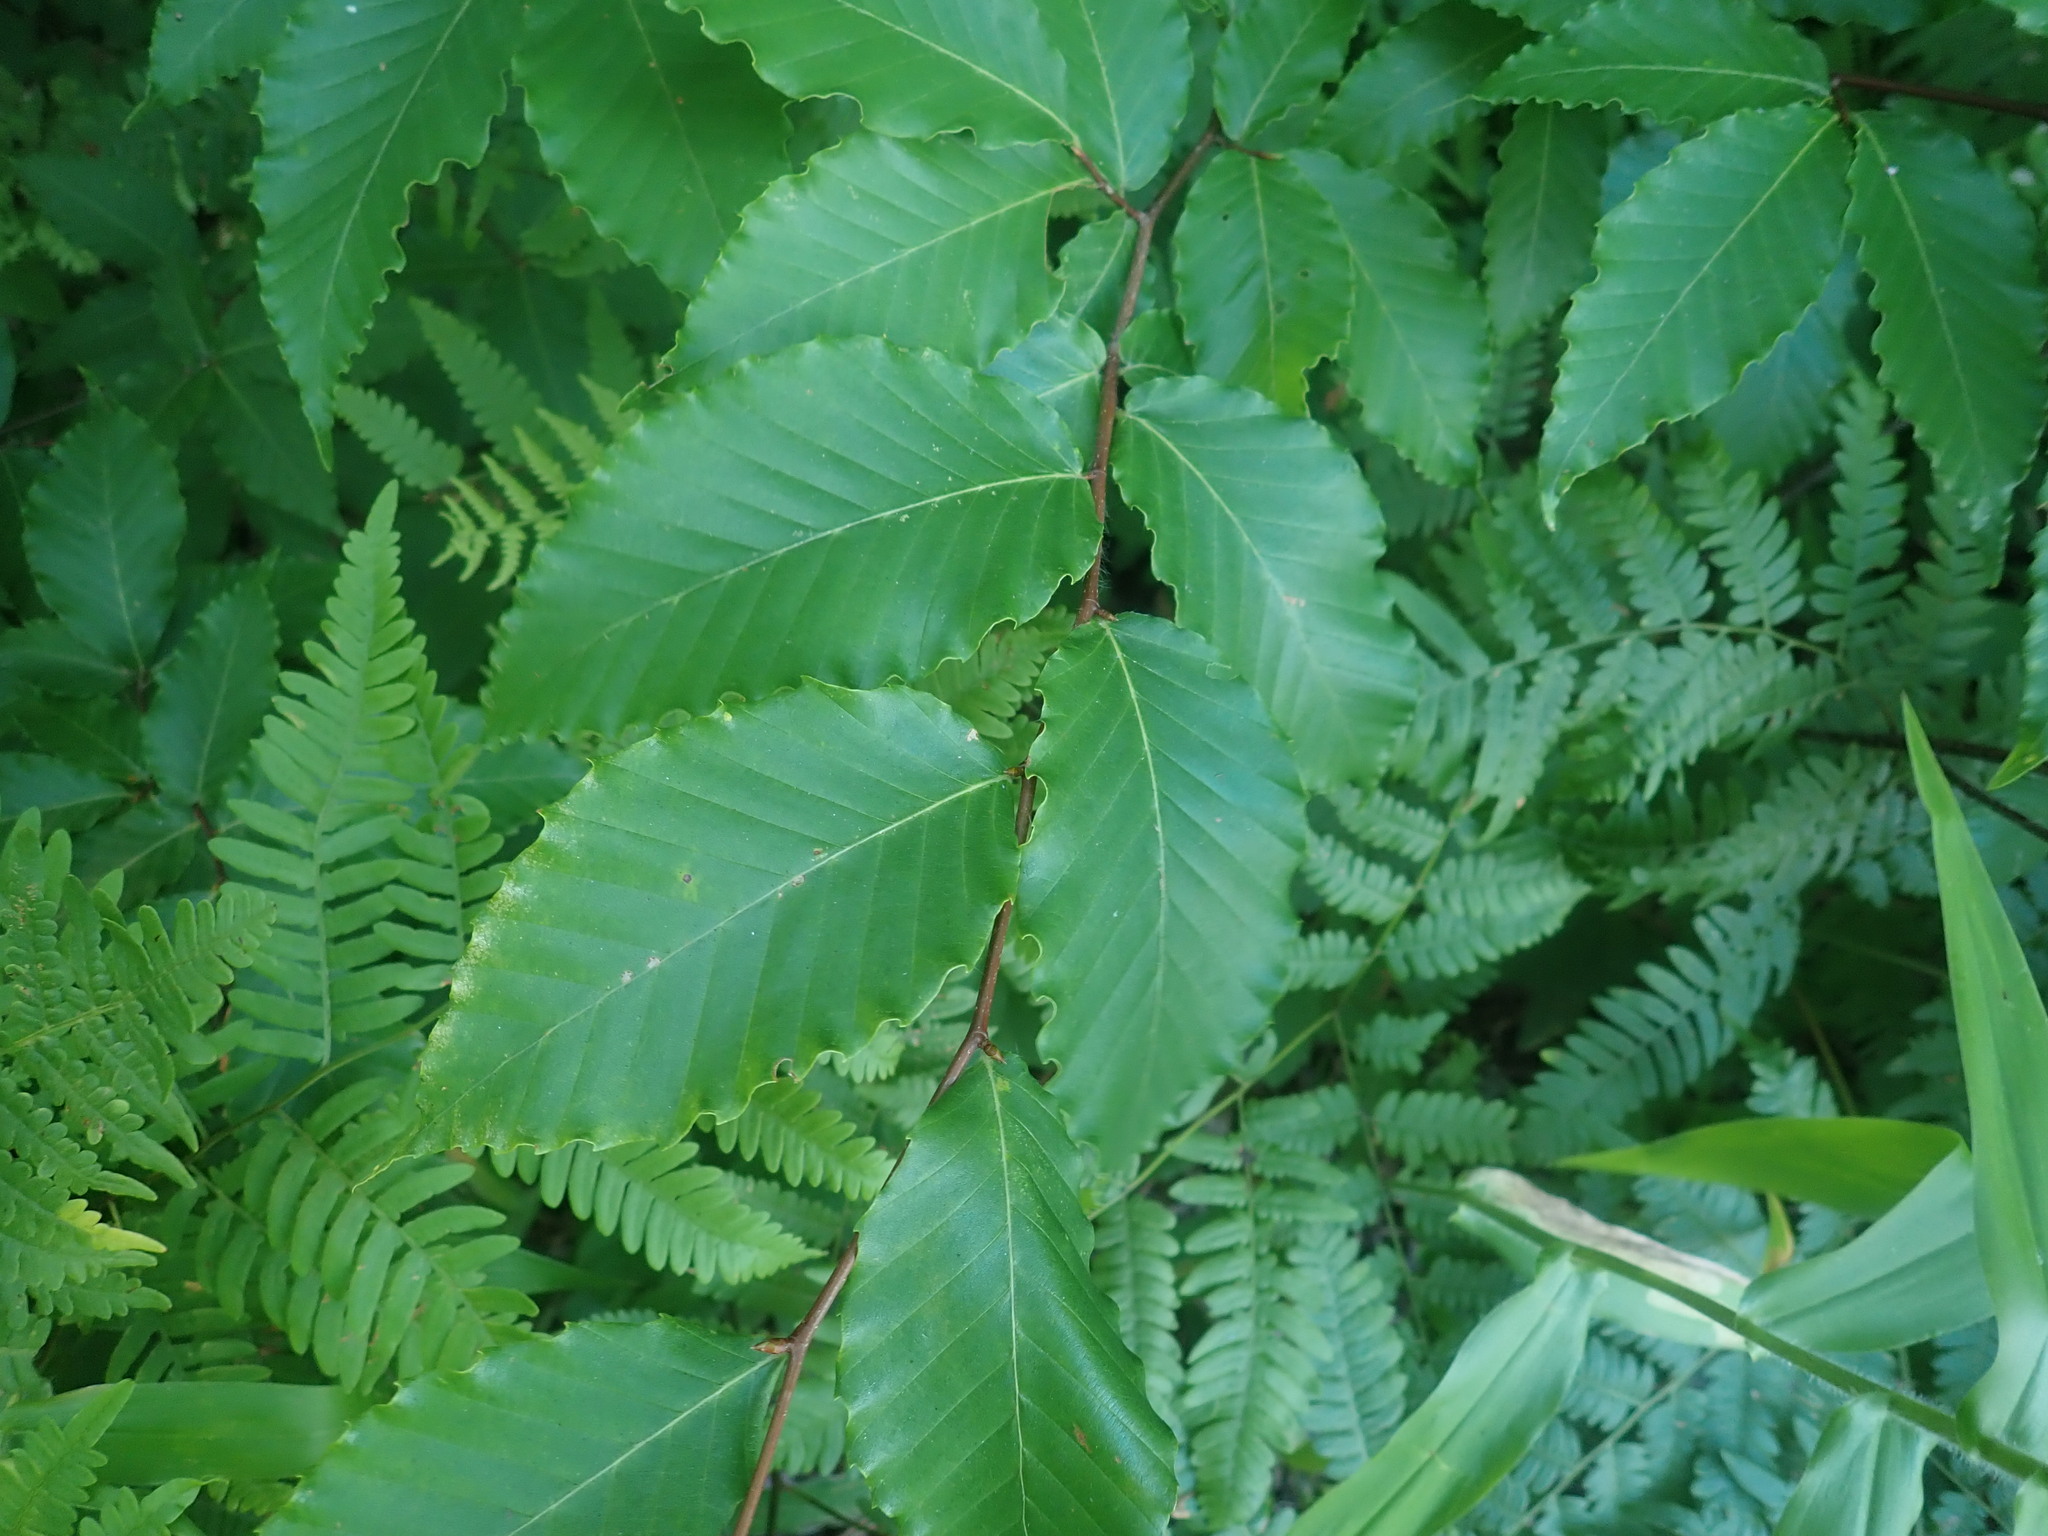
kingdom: Plantae
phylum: Tracheophyta
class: Magnoliopsida
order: Fagales
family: Fagaceae
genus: Fagus
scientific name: Fagus grandifolia
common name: American beech
